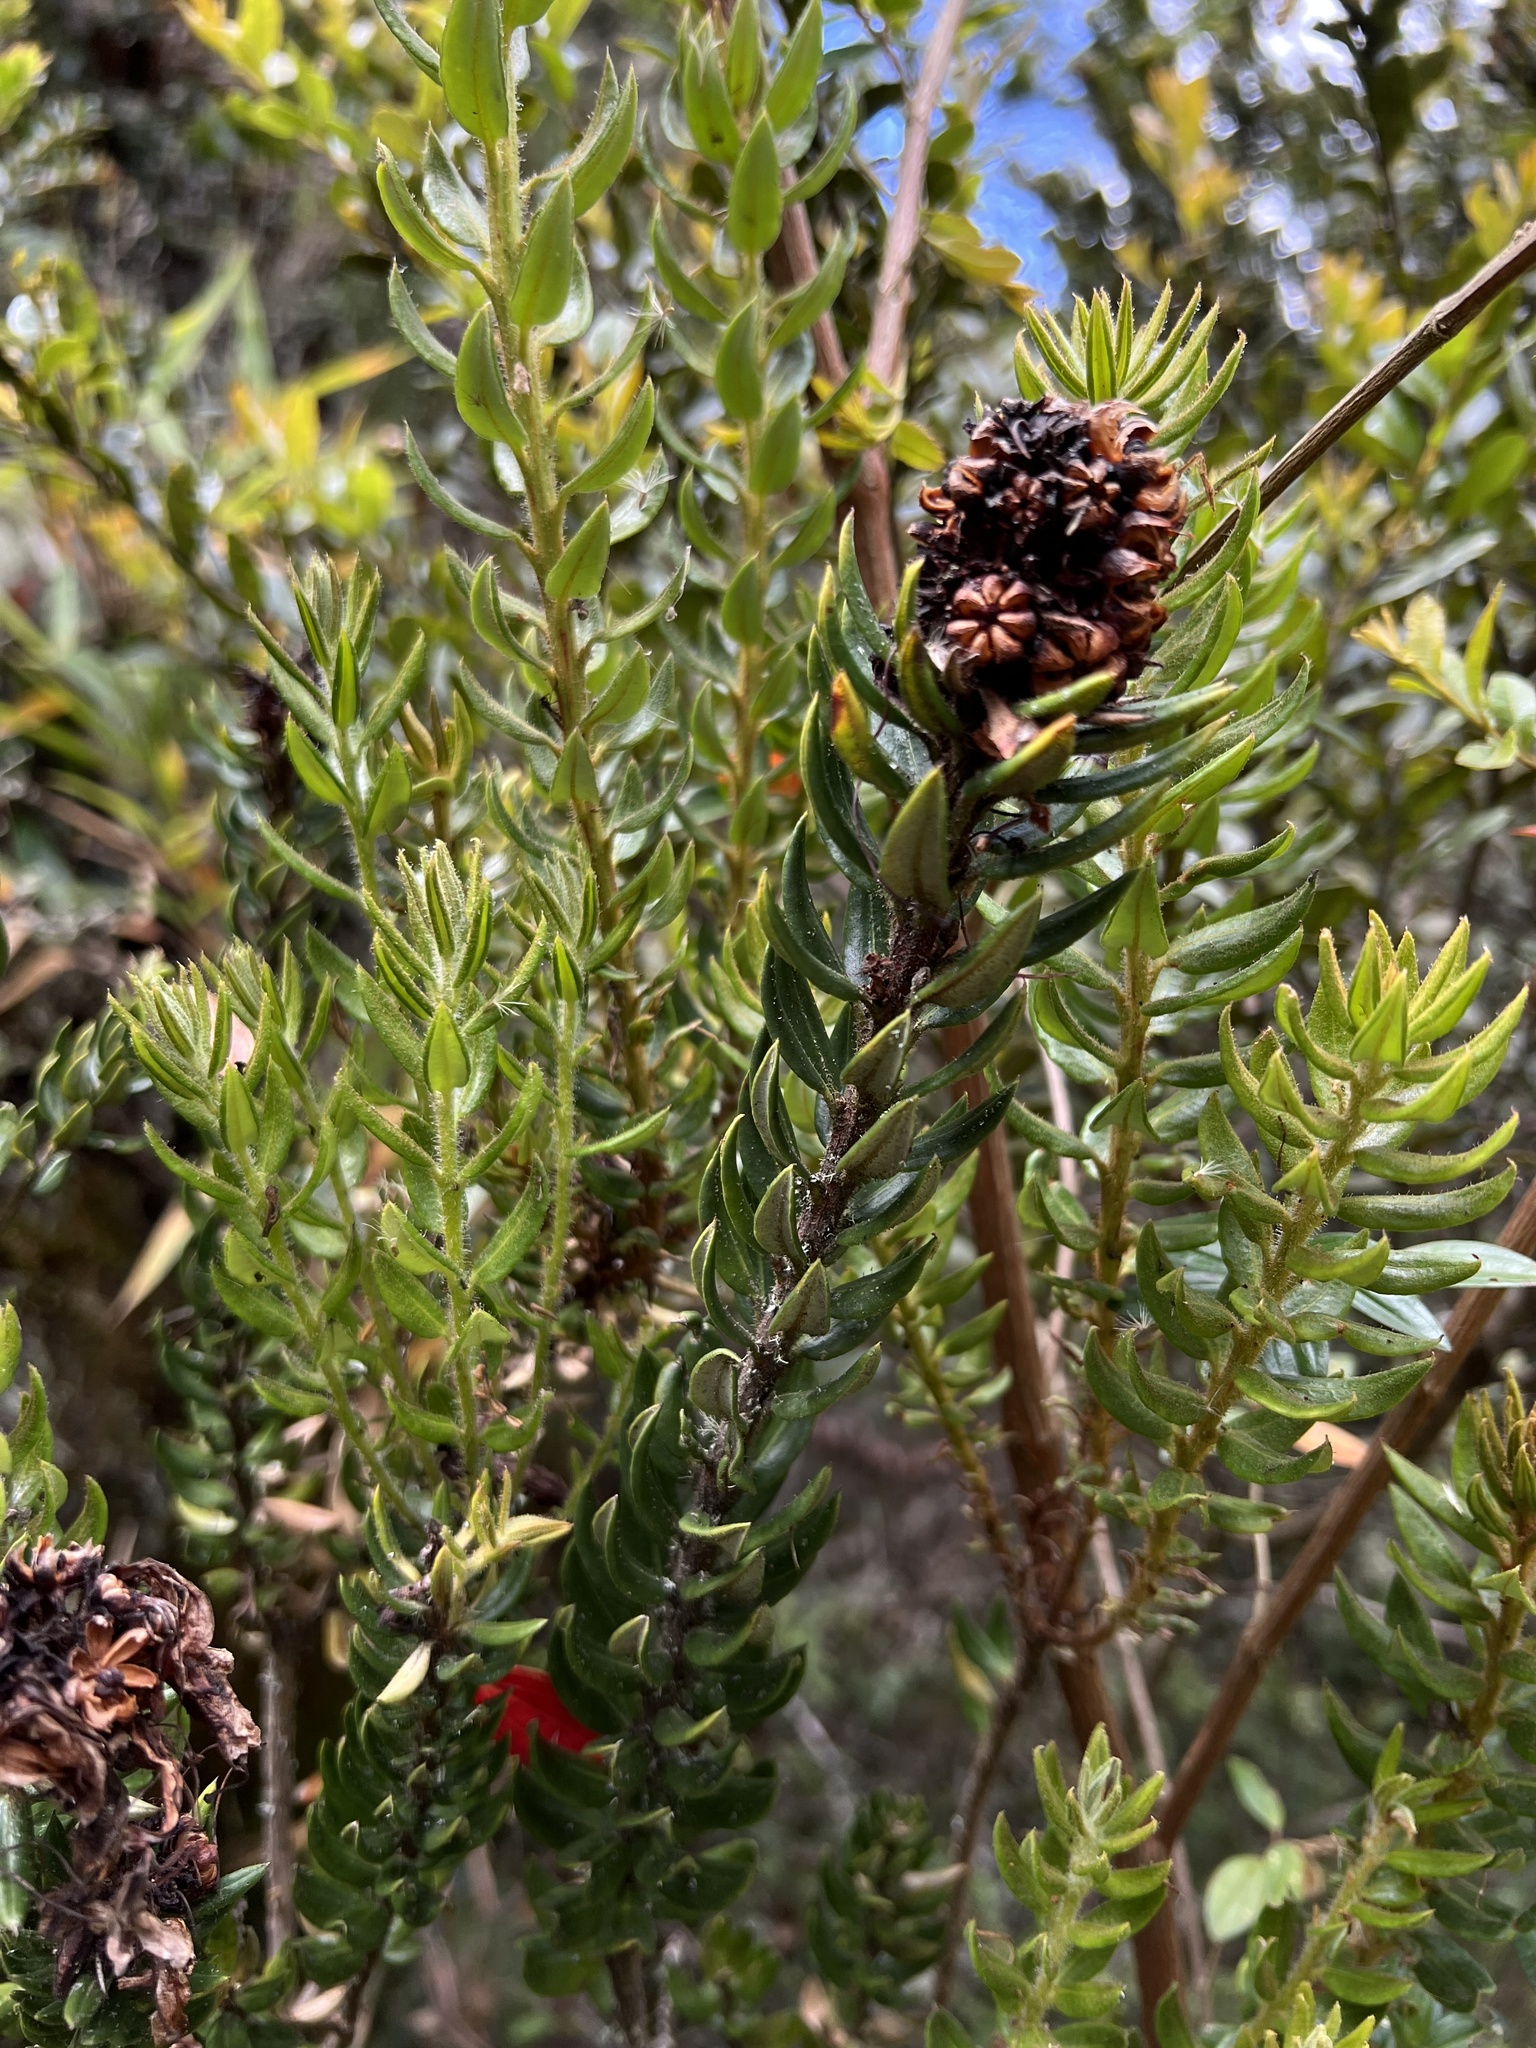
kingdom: Plantae
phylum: Tracheophyta
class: Magnoliopsida
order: Ericales
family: Ericaceae
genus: Bejaria
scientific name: Bejaria resinosa
